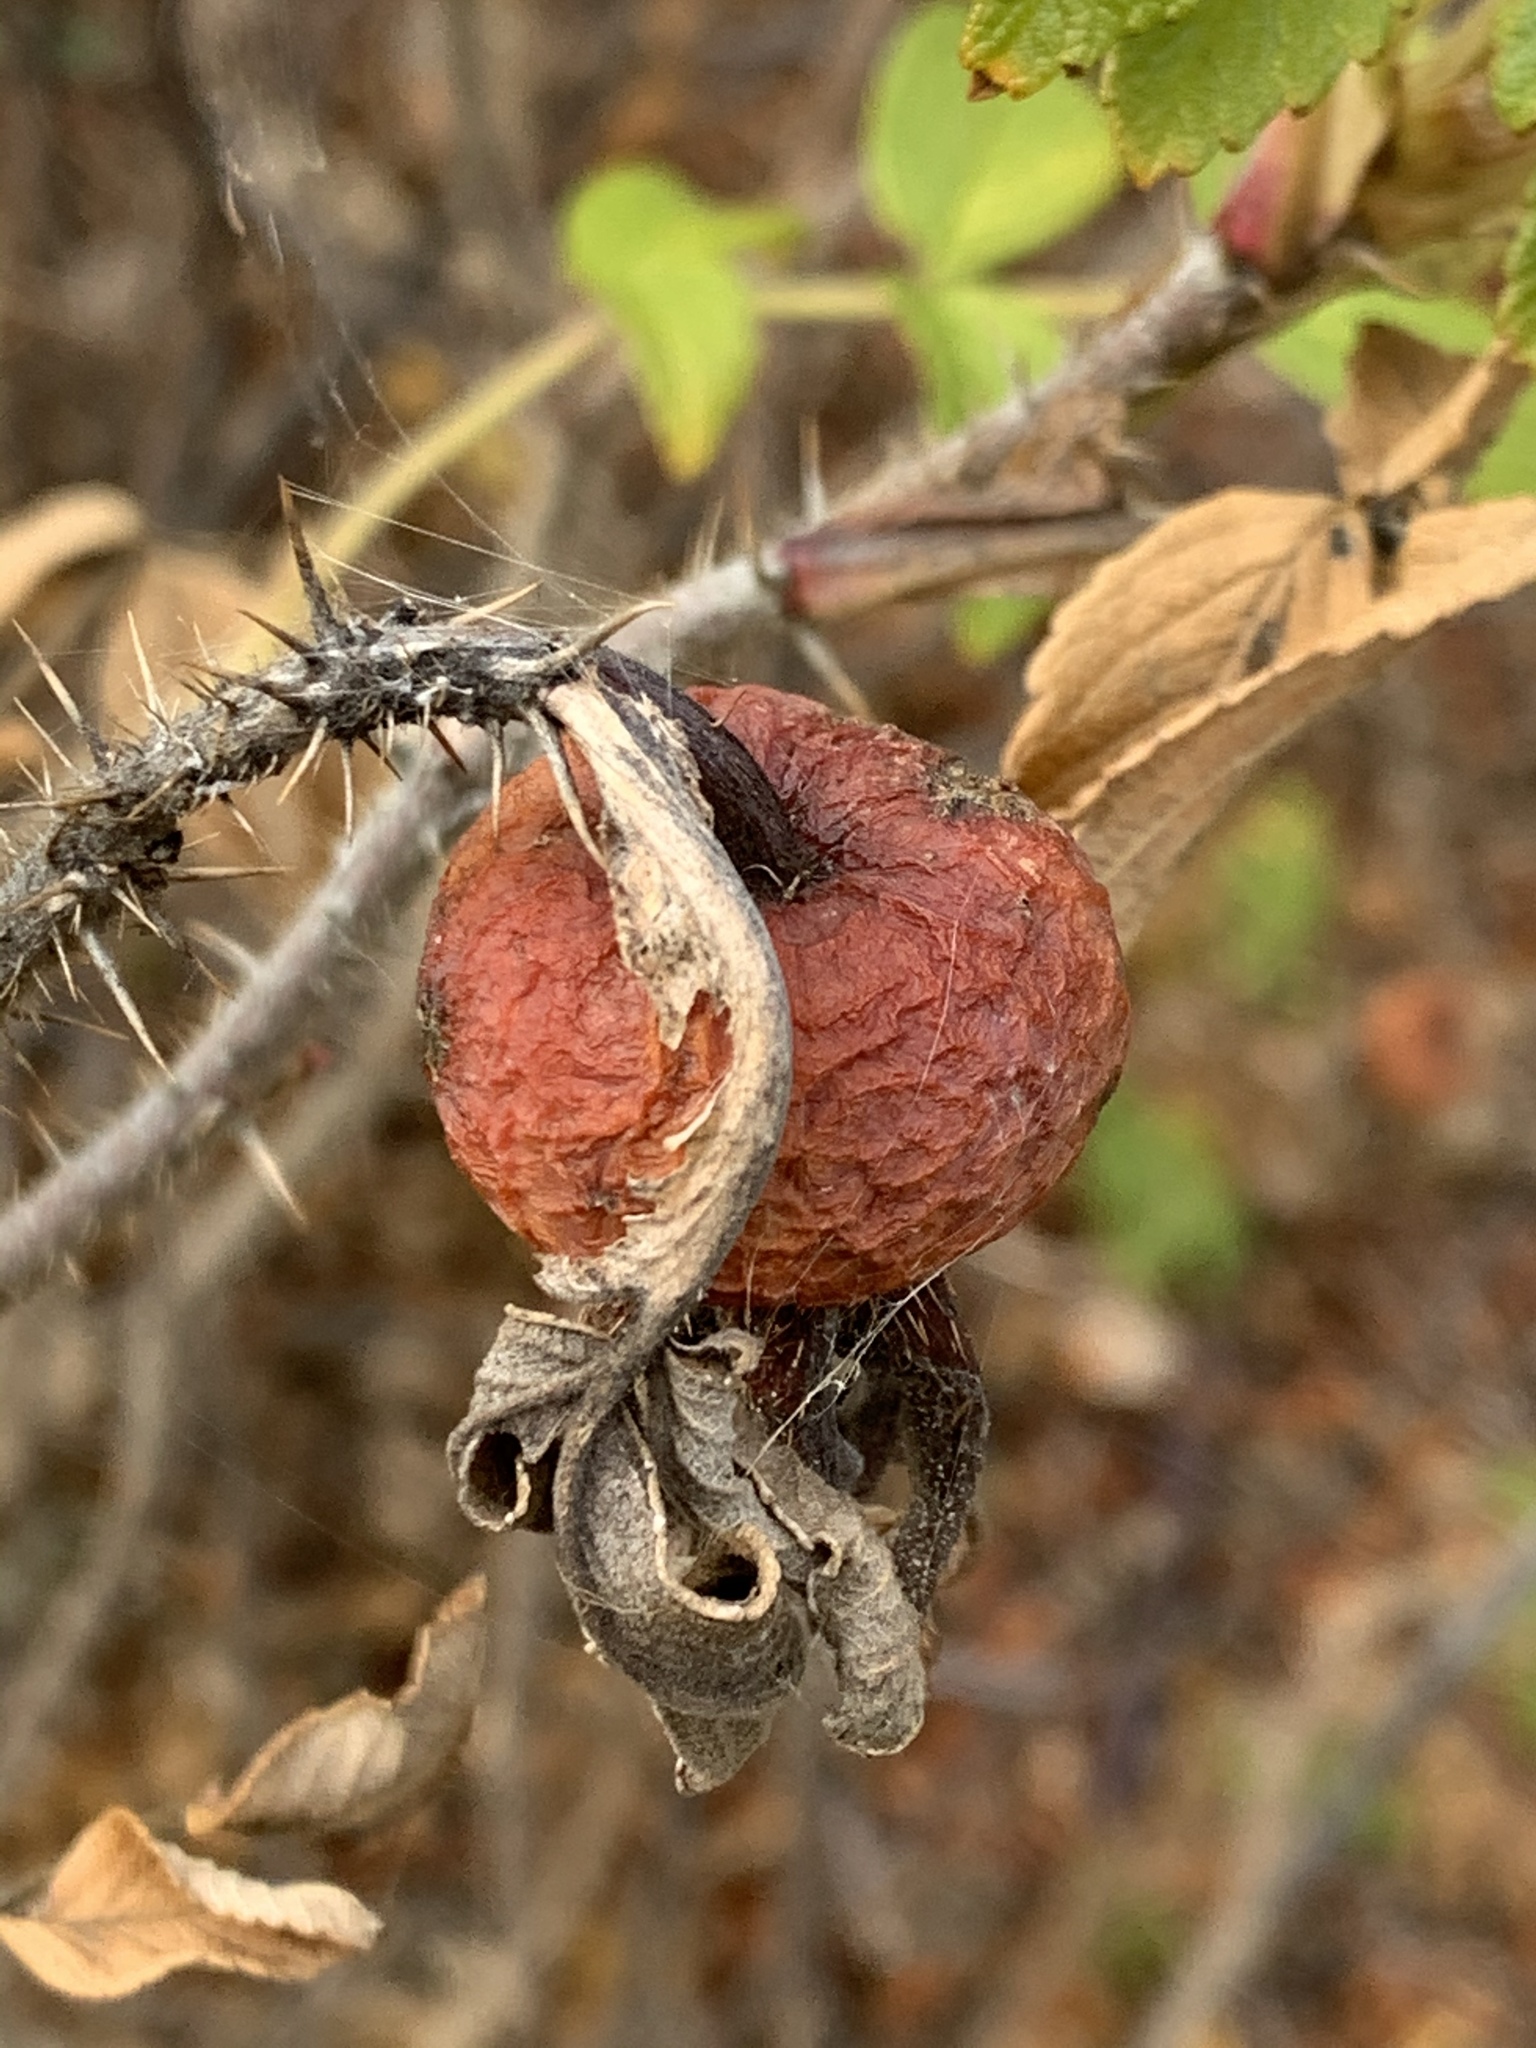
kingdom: Plantae
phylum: Tracheophyta
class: Magnoliopsida
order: Rosales
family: Rosaceae
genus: Rosa
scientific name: Rosa rugosa
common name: Japanese rose
